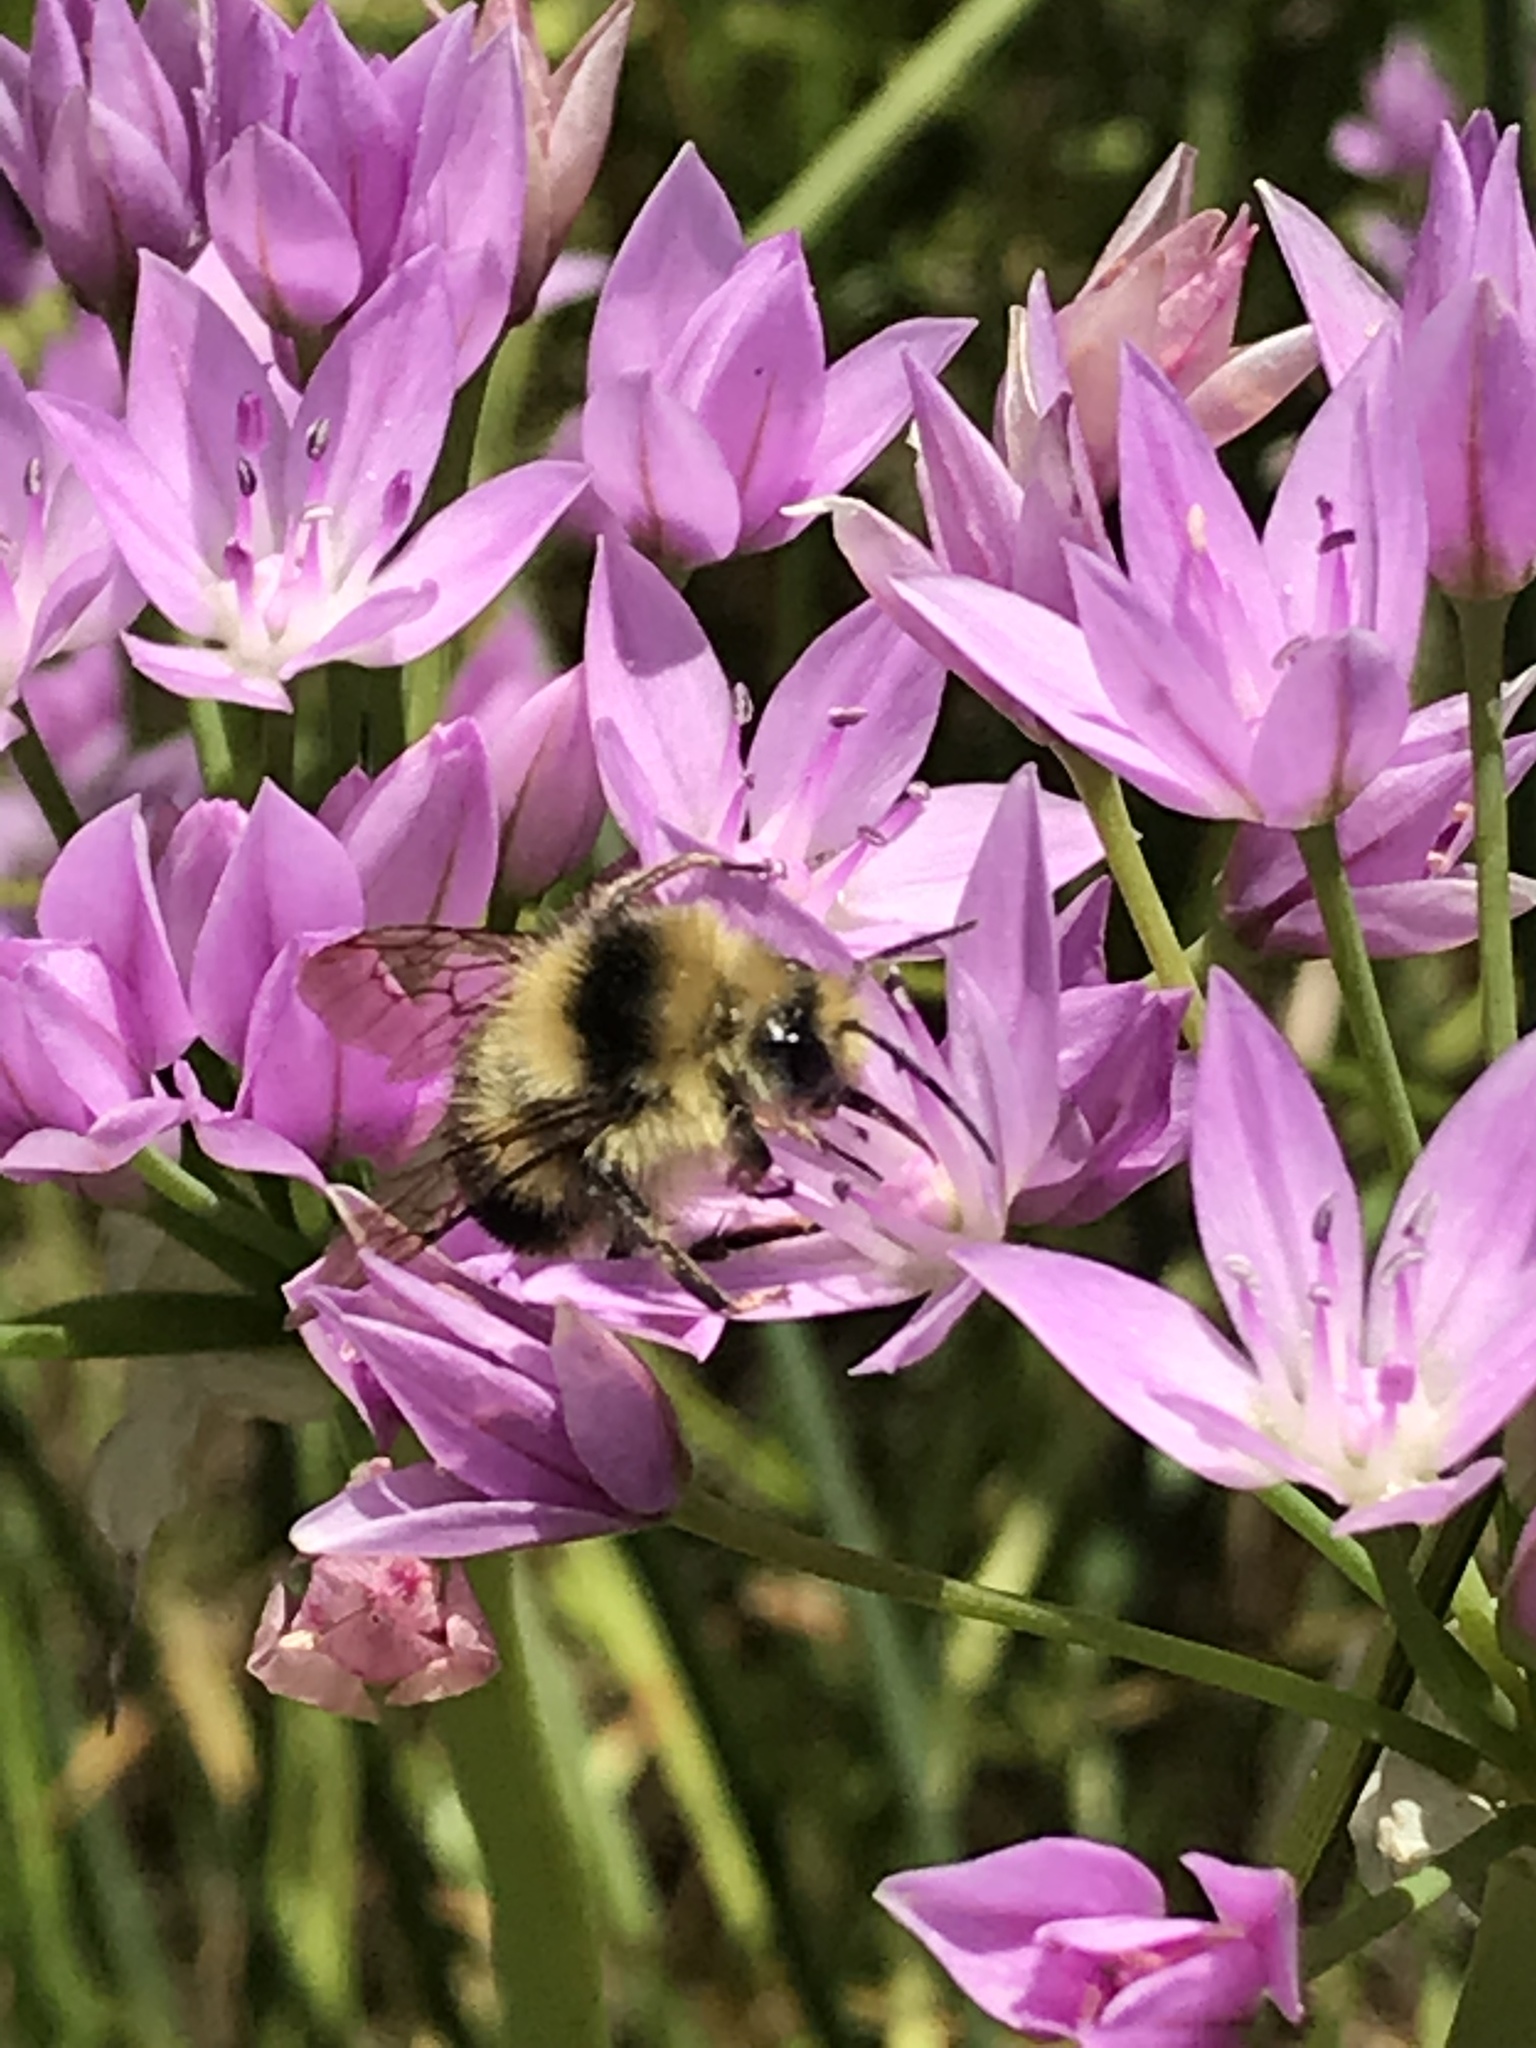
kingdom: Animalia
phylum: Arthropoda
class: Insecta
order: Hymenoptera
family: Apidae
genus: Bombus
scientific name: Bombus melanopygus
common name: Black tail bumble bee
